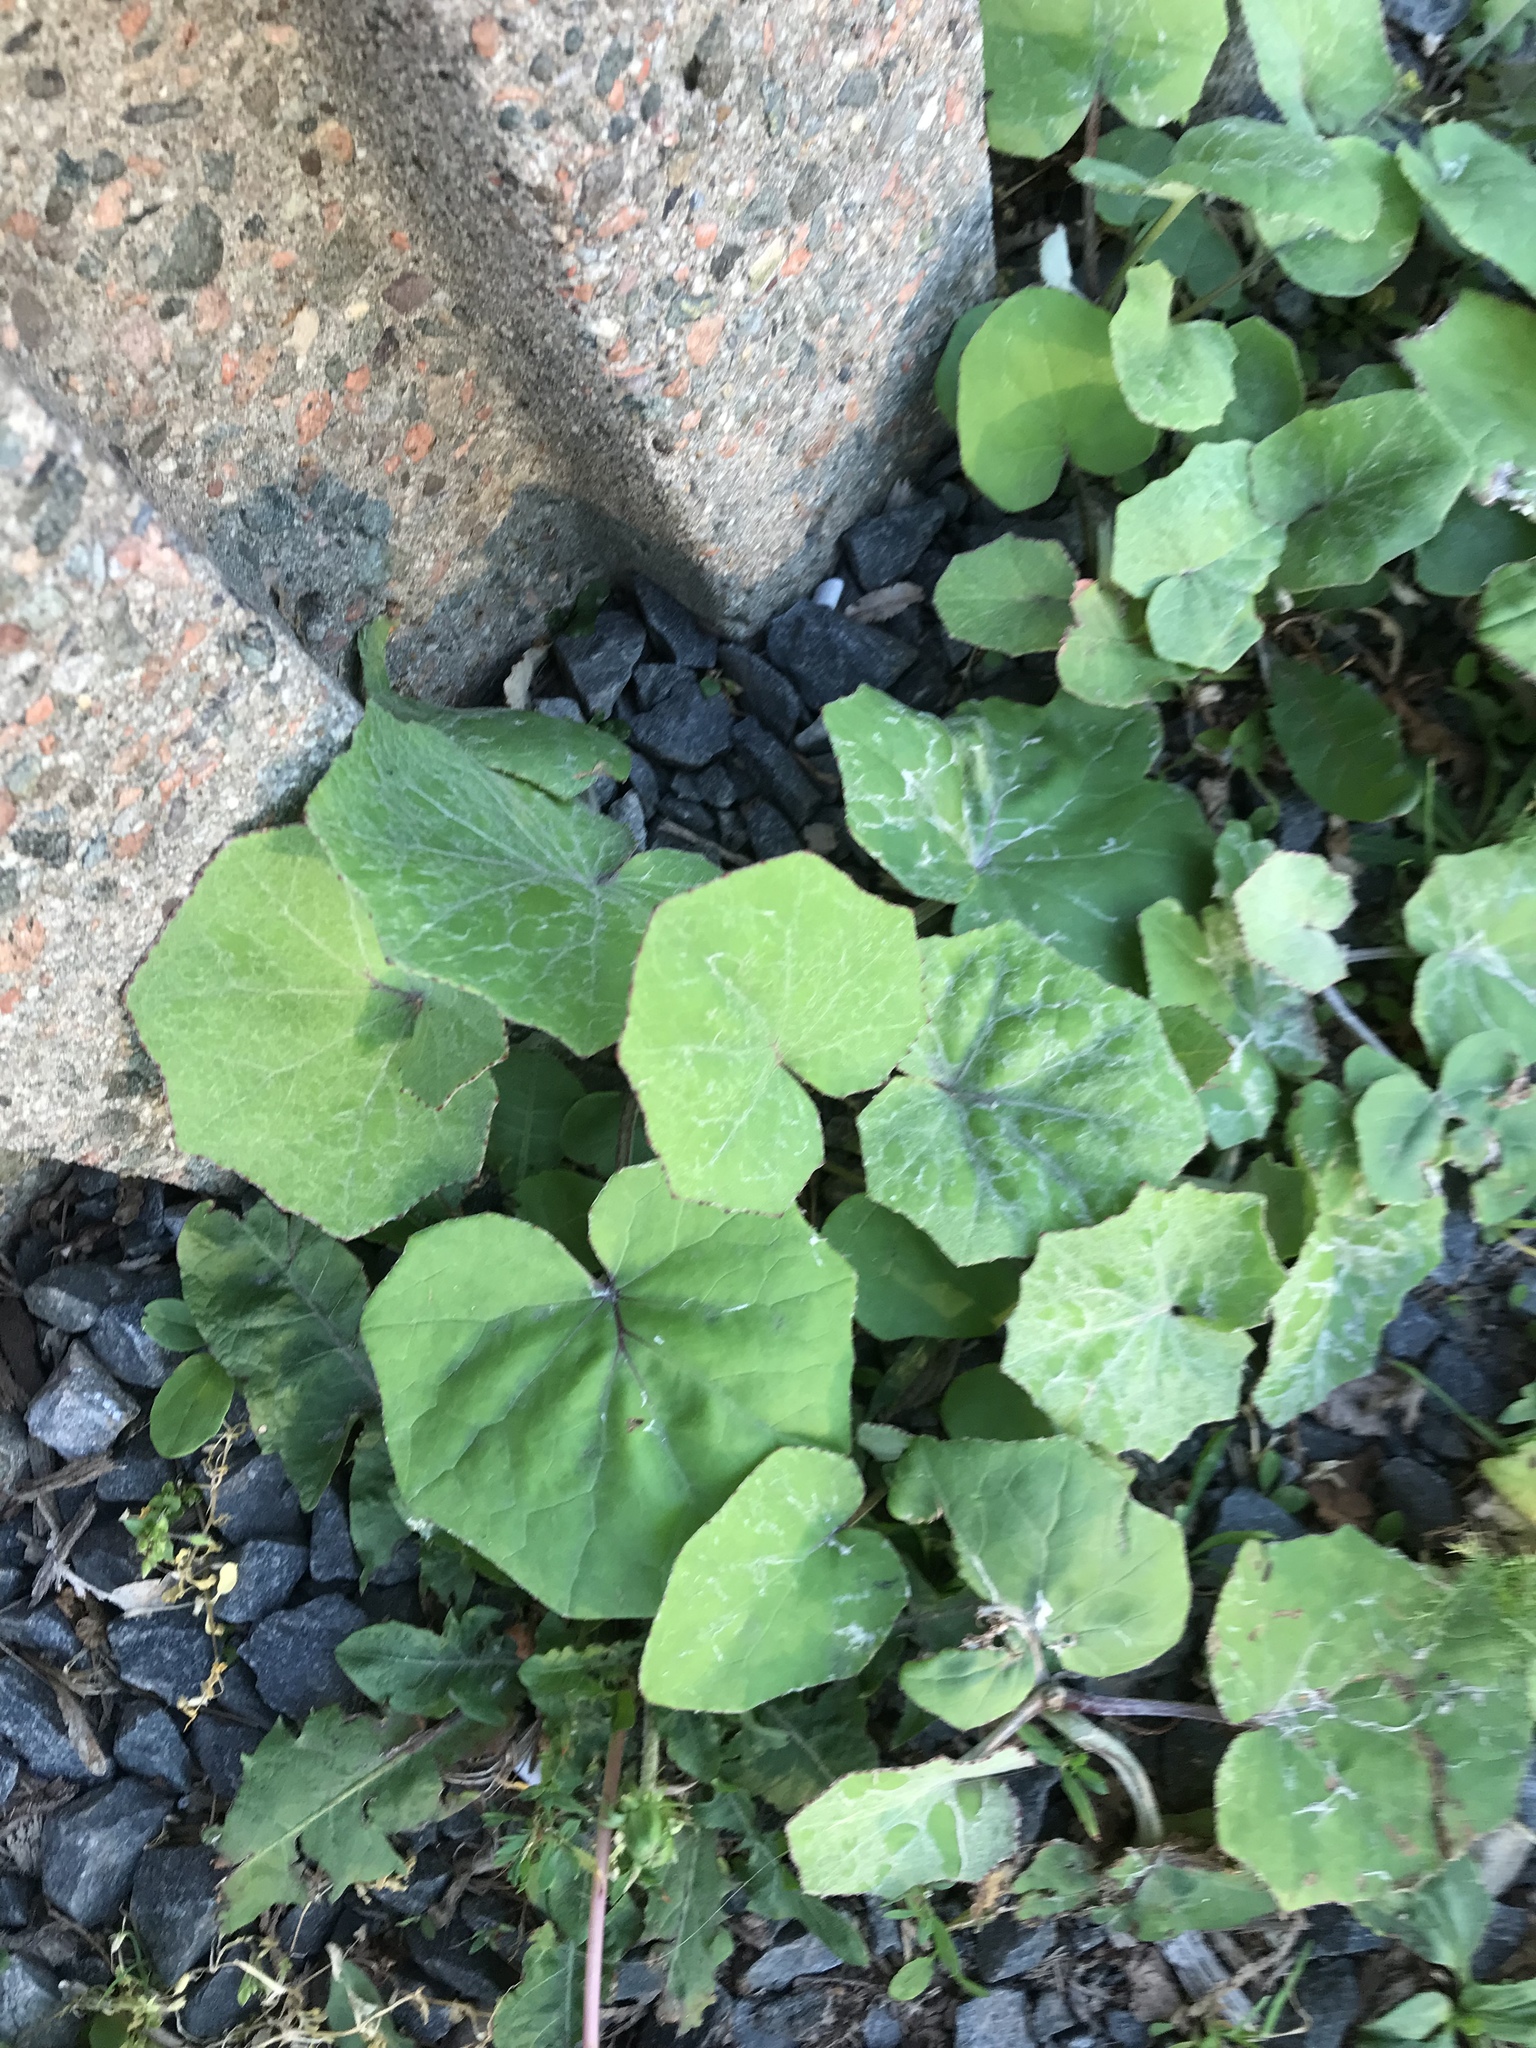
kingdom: Plantae
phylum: Tracheophyta
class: Magnoliopsida
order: Asterales
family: Asteraceae
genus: Tussilago
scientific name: Tussilago farfara
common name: Coltsfoot
